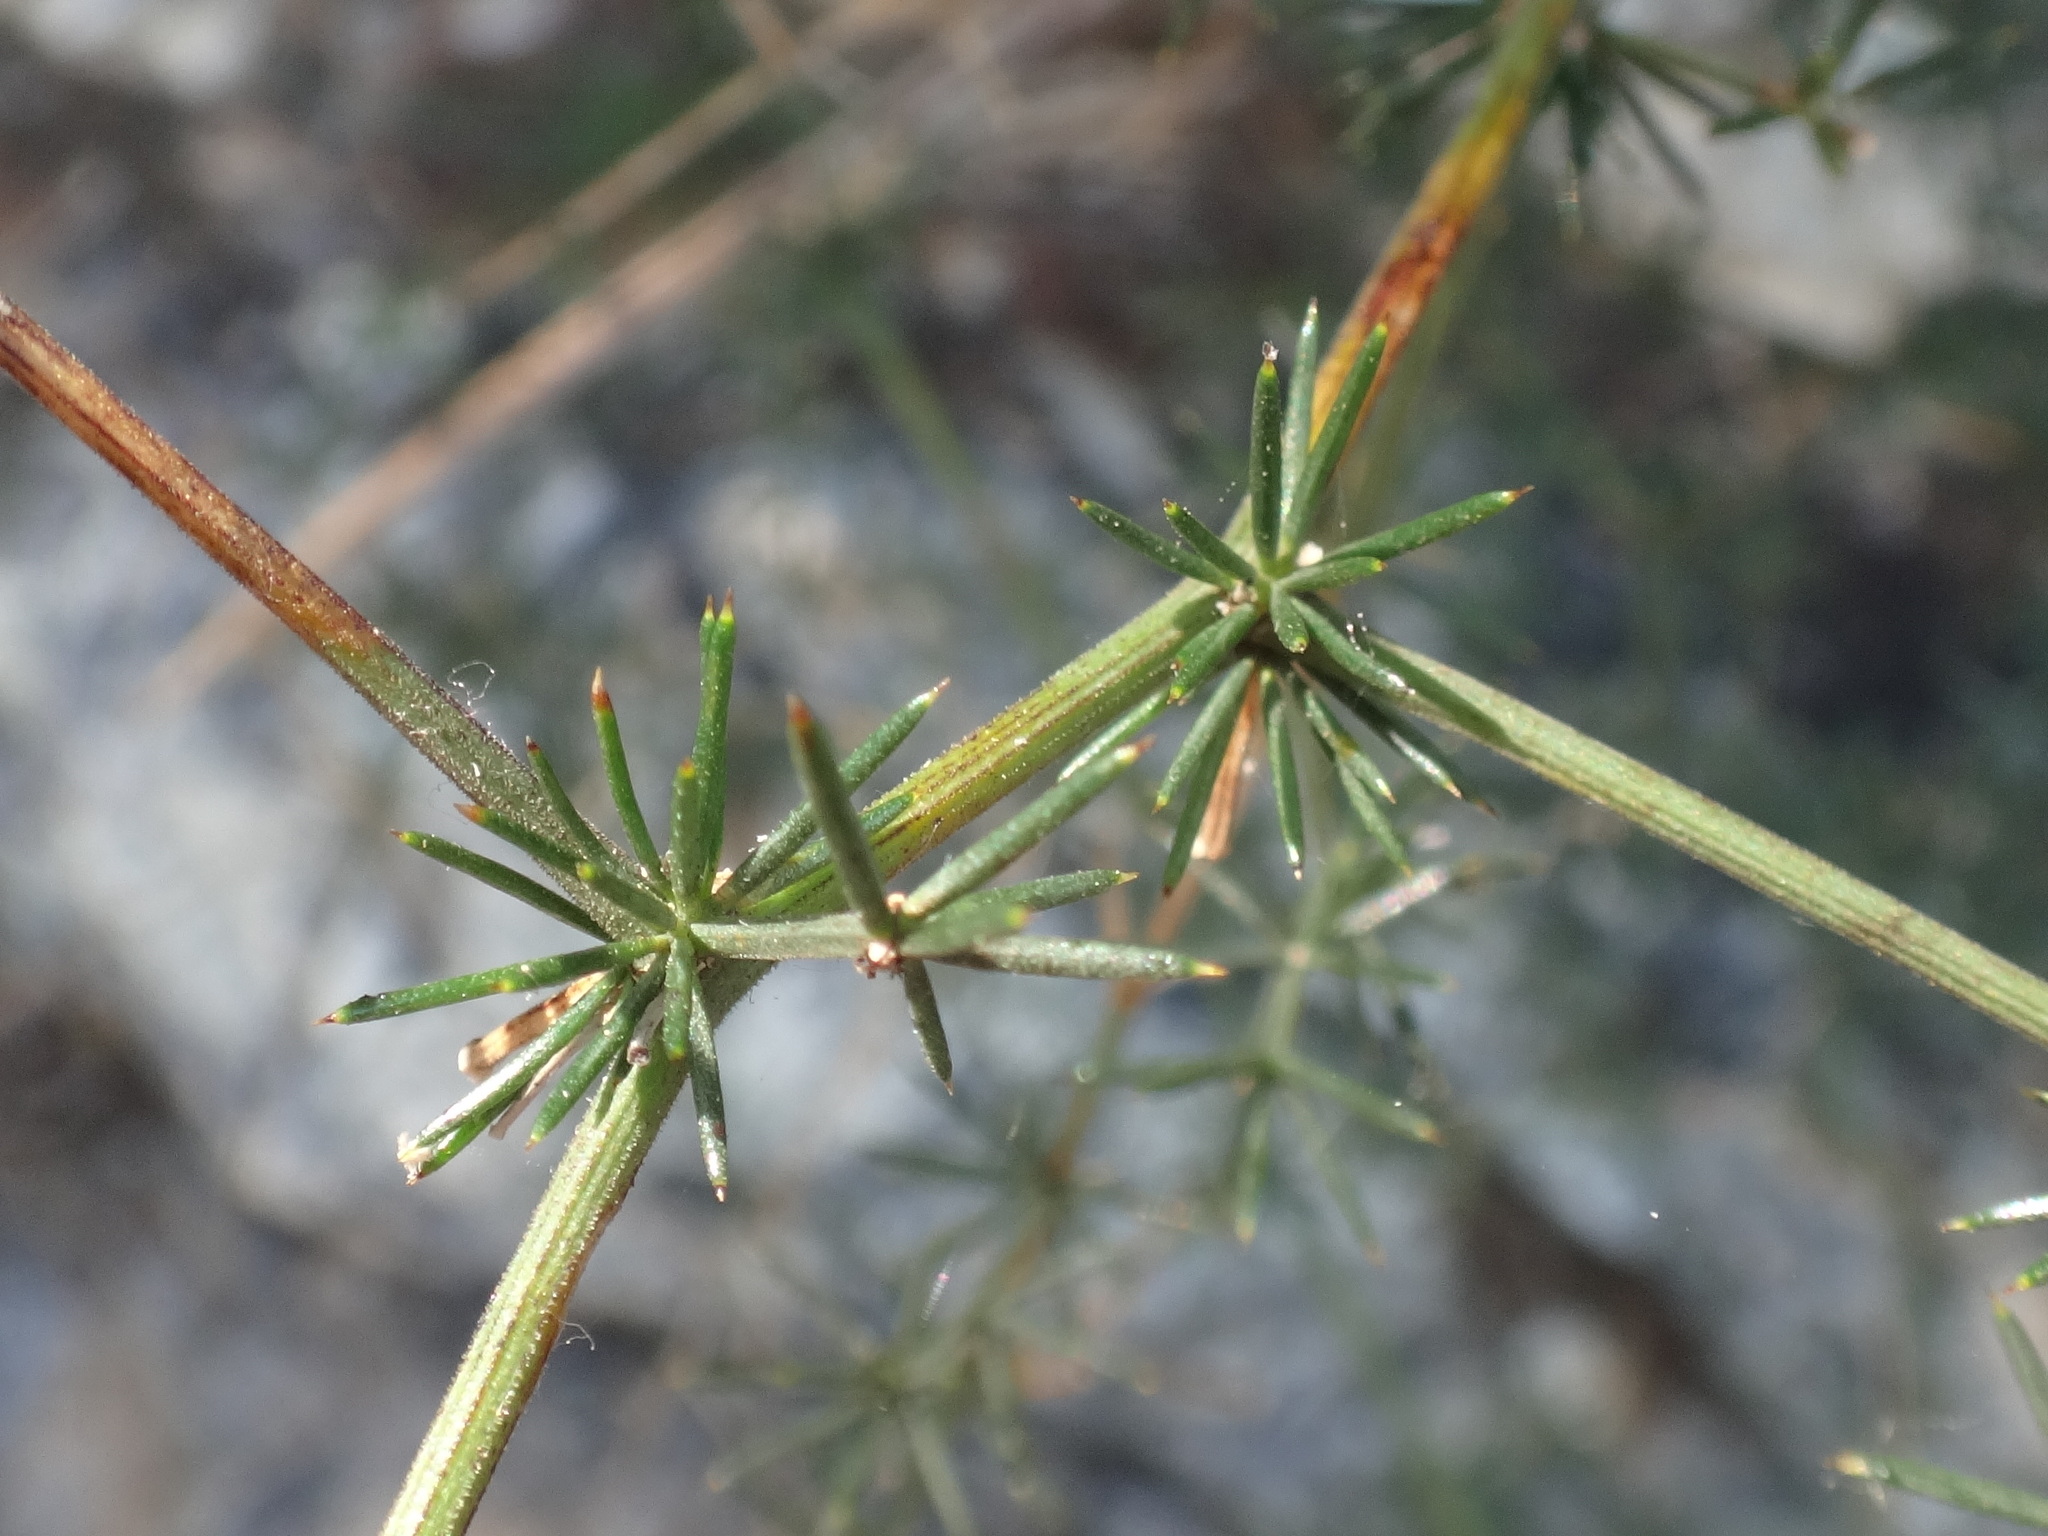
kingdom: Plantae
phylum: Tracheophyta
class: Liliopsida
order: Asparagales
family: Asparagaceae
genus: Asparagus
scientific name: Asparagus acutifolius
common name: Wild asparagus
